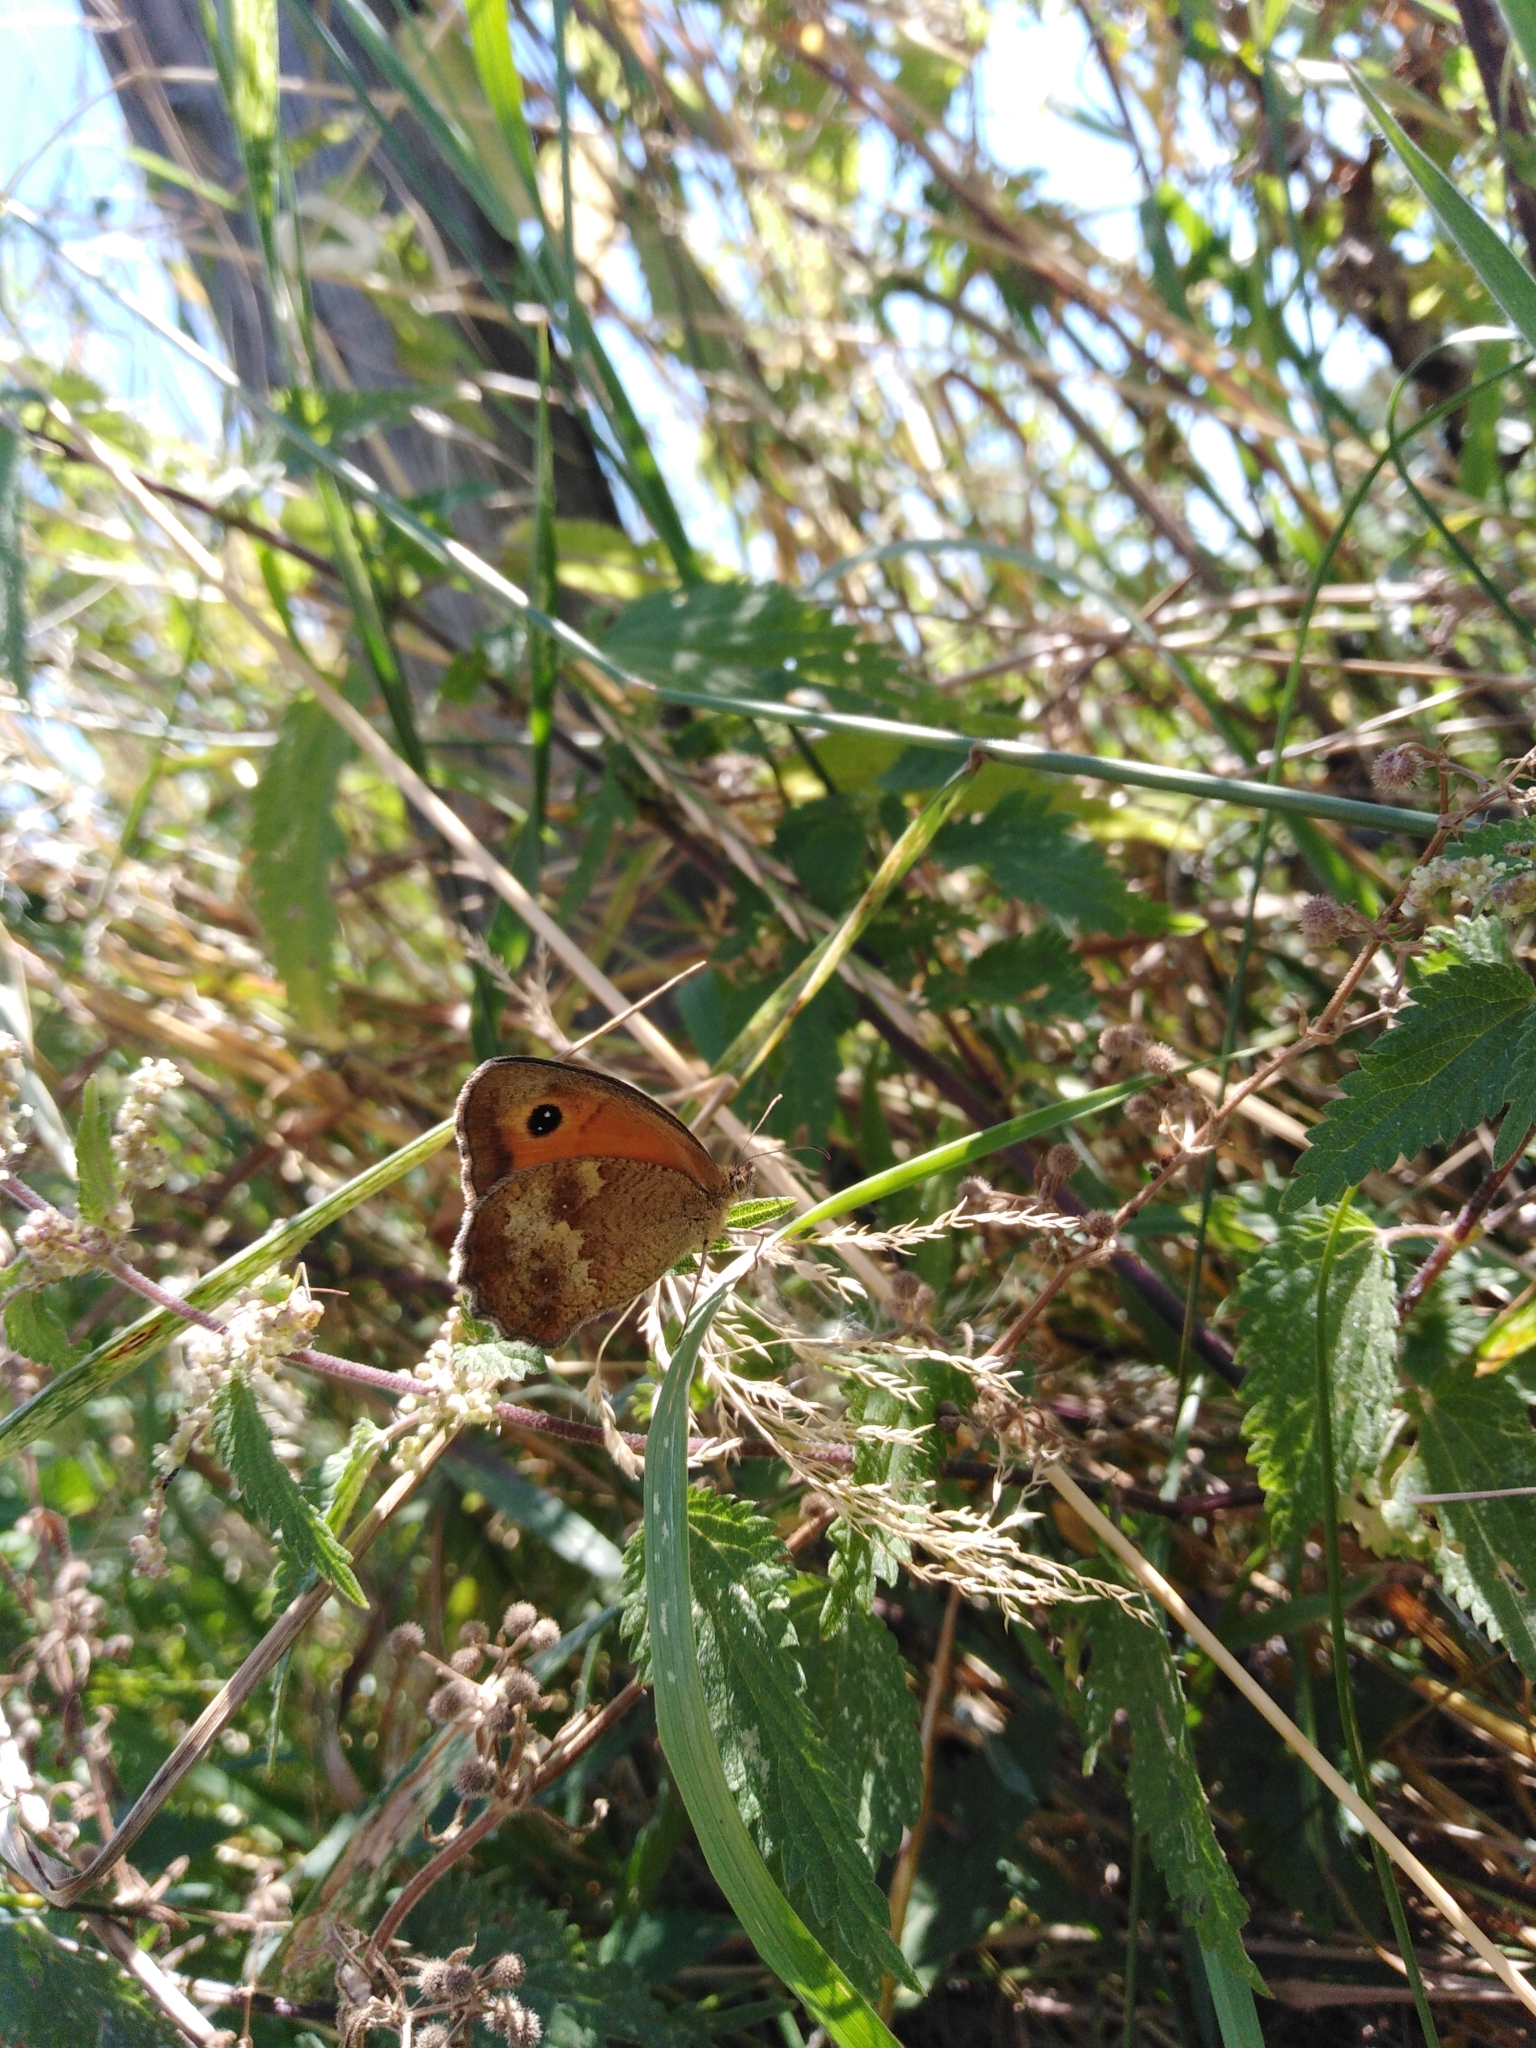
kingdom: Animalia
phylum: Arthropoda
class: Insecta
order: Lepidoptera
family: Nymphalidae
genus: Pyronia
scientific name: Pyronia tithonus
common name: Gatekeeper
